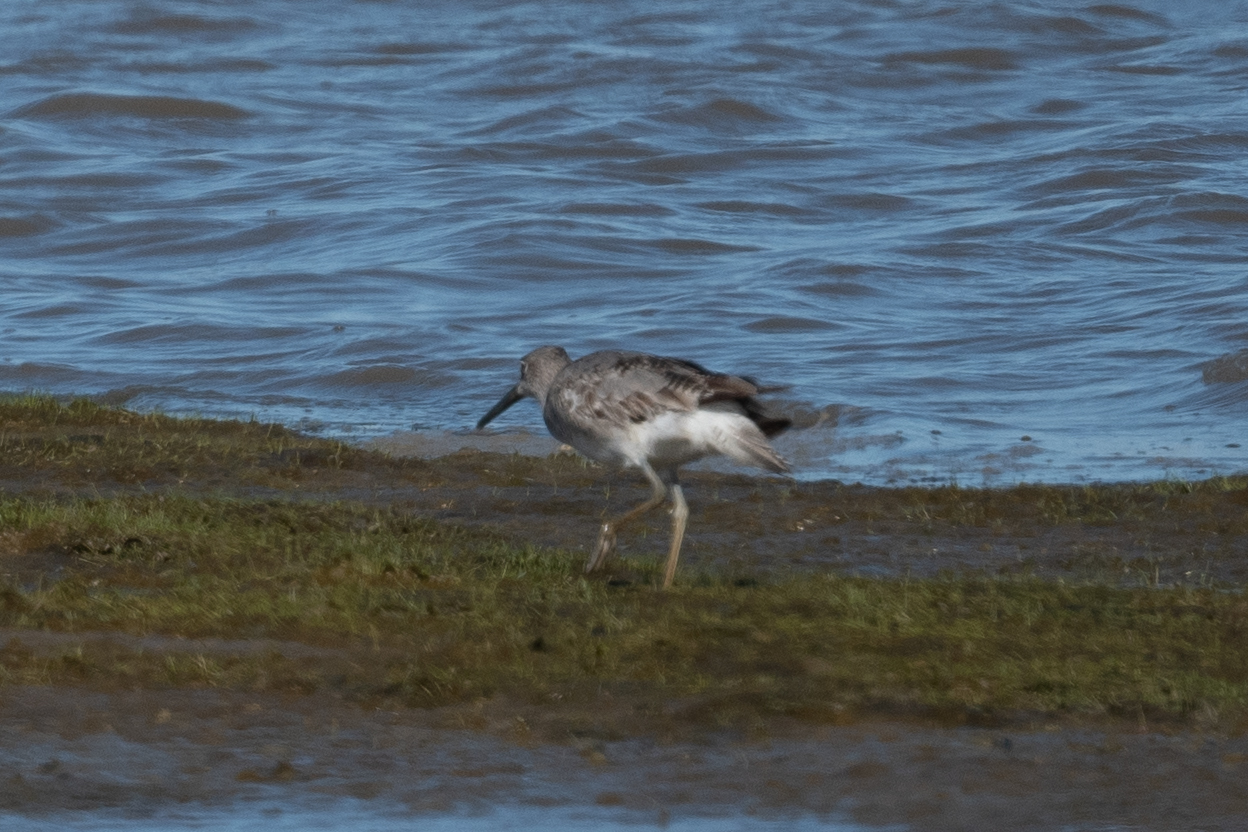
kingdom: Animalia
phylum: Chordata
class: Aves
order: Charadriiformes
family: Scolopacidae
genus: Tringa
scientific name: Tringa semipalmata
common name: Willet
